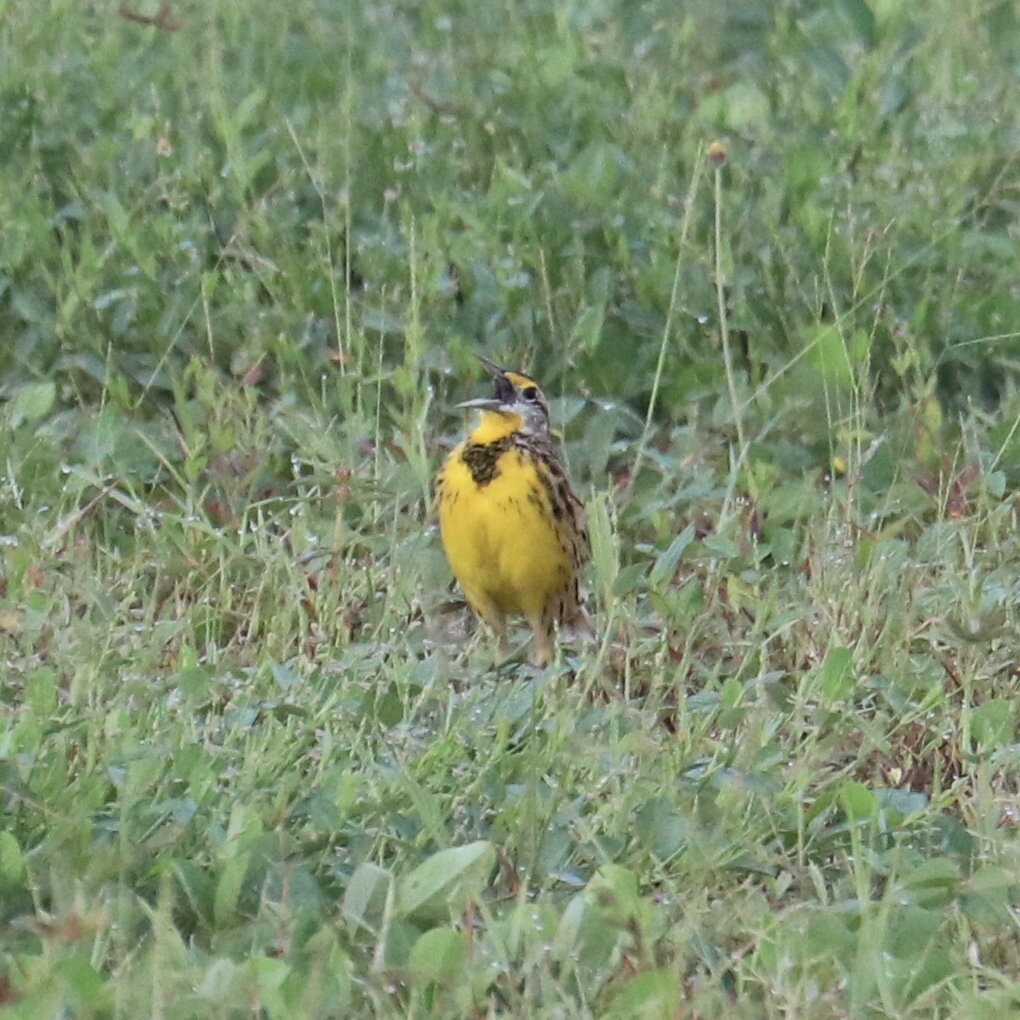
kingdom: Animalia
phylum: Chordata
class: Aves
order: Passeriformes
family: Icteridae
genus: Sturnella
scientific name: Sturnella magna
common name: Eastern meadowlark
